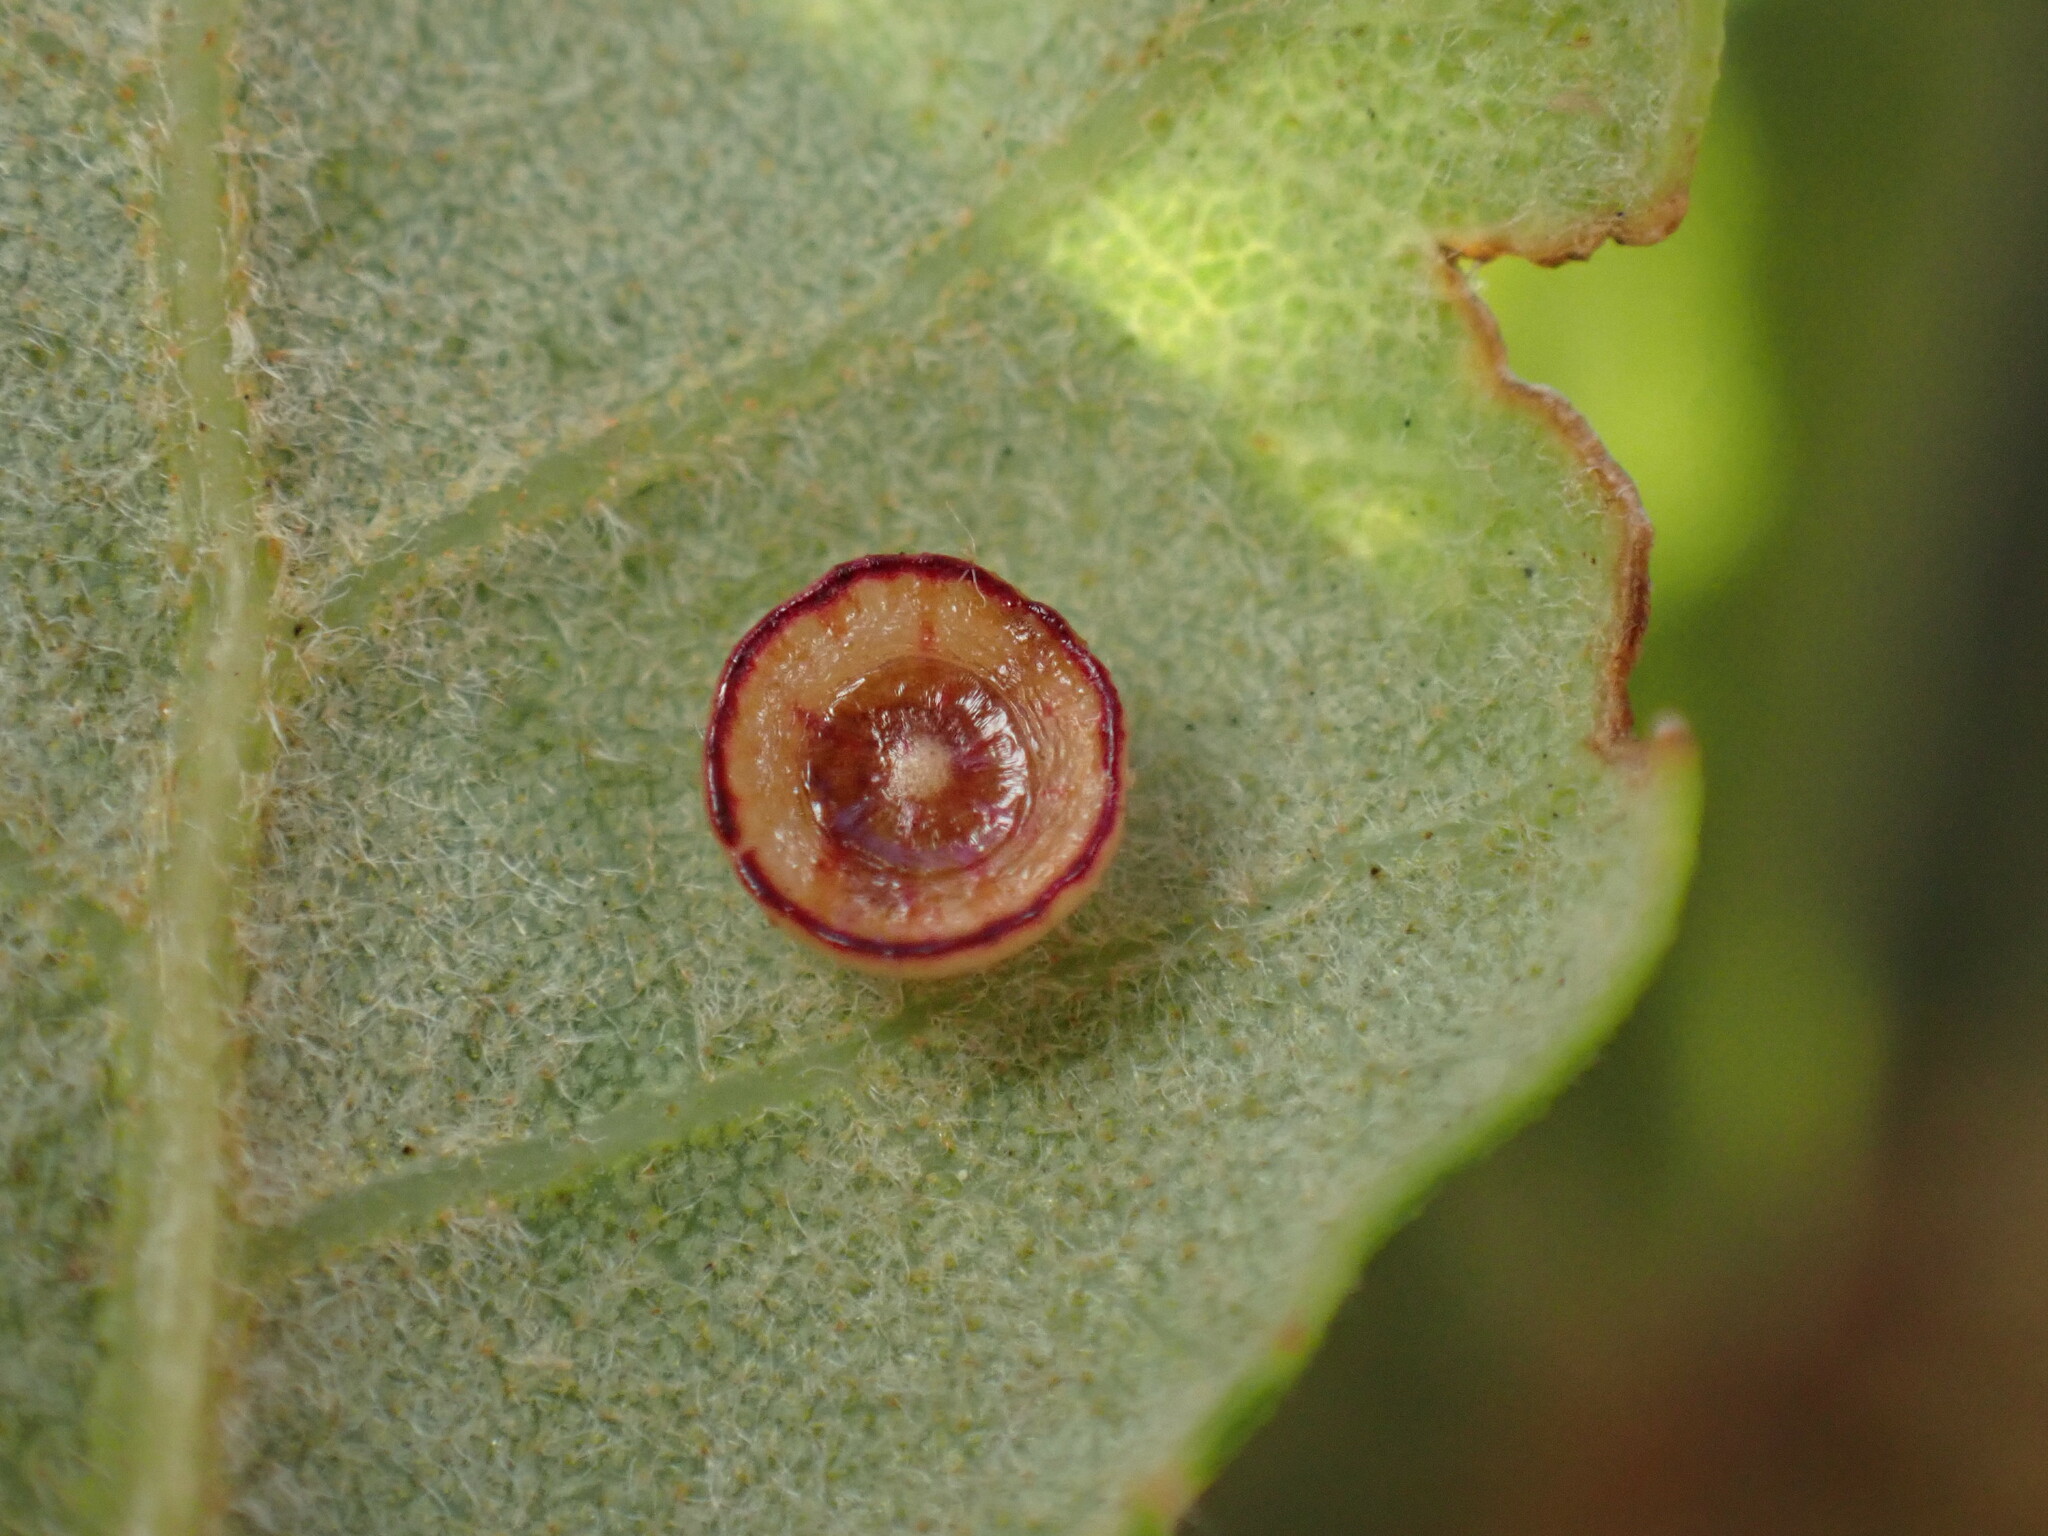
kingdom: Animalia
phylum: Arthropoda
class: Insecta
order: Hymenoptera
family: Cynipidae
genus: Andricus
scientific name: Andricus
